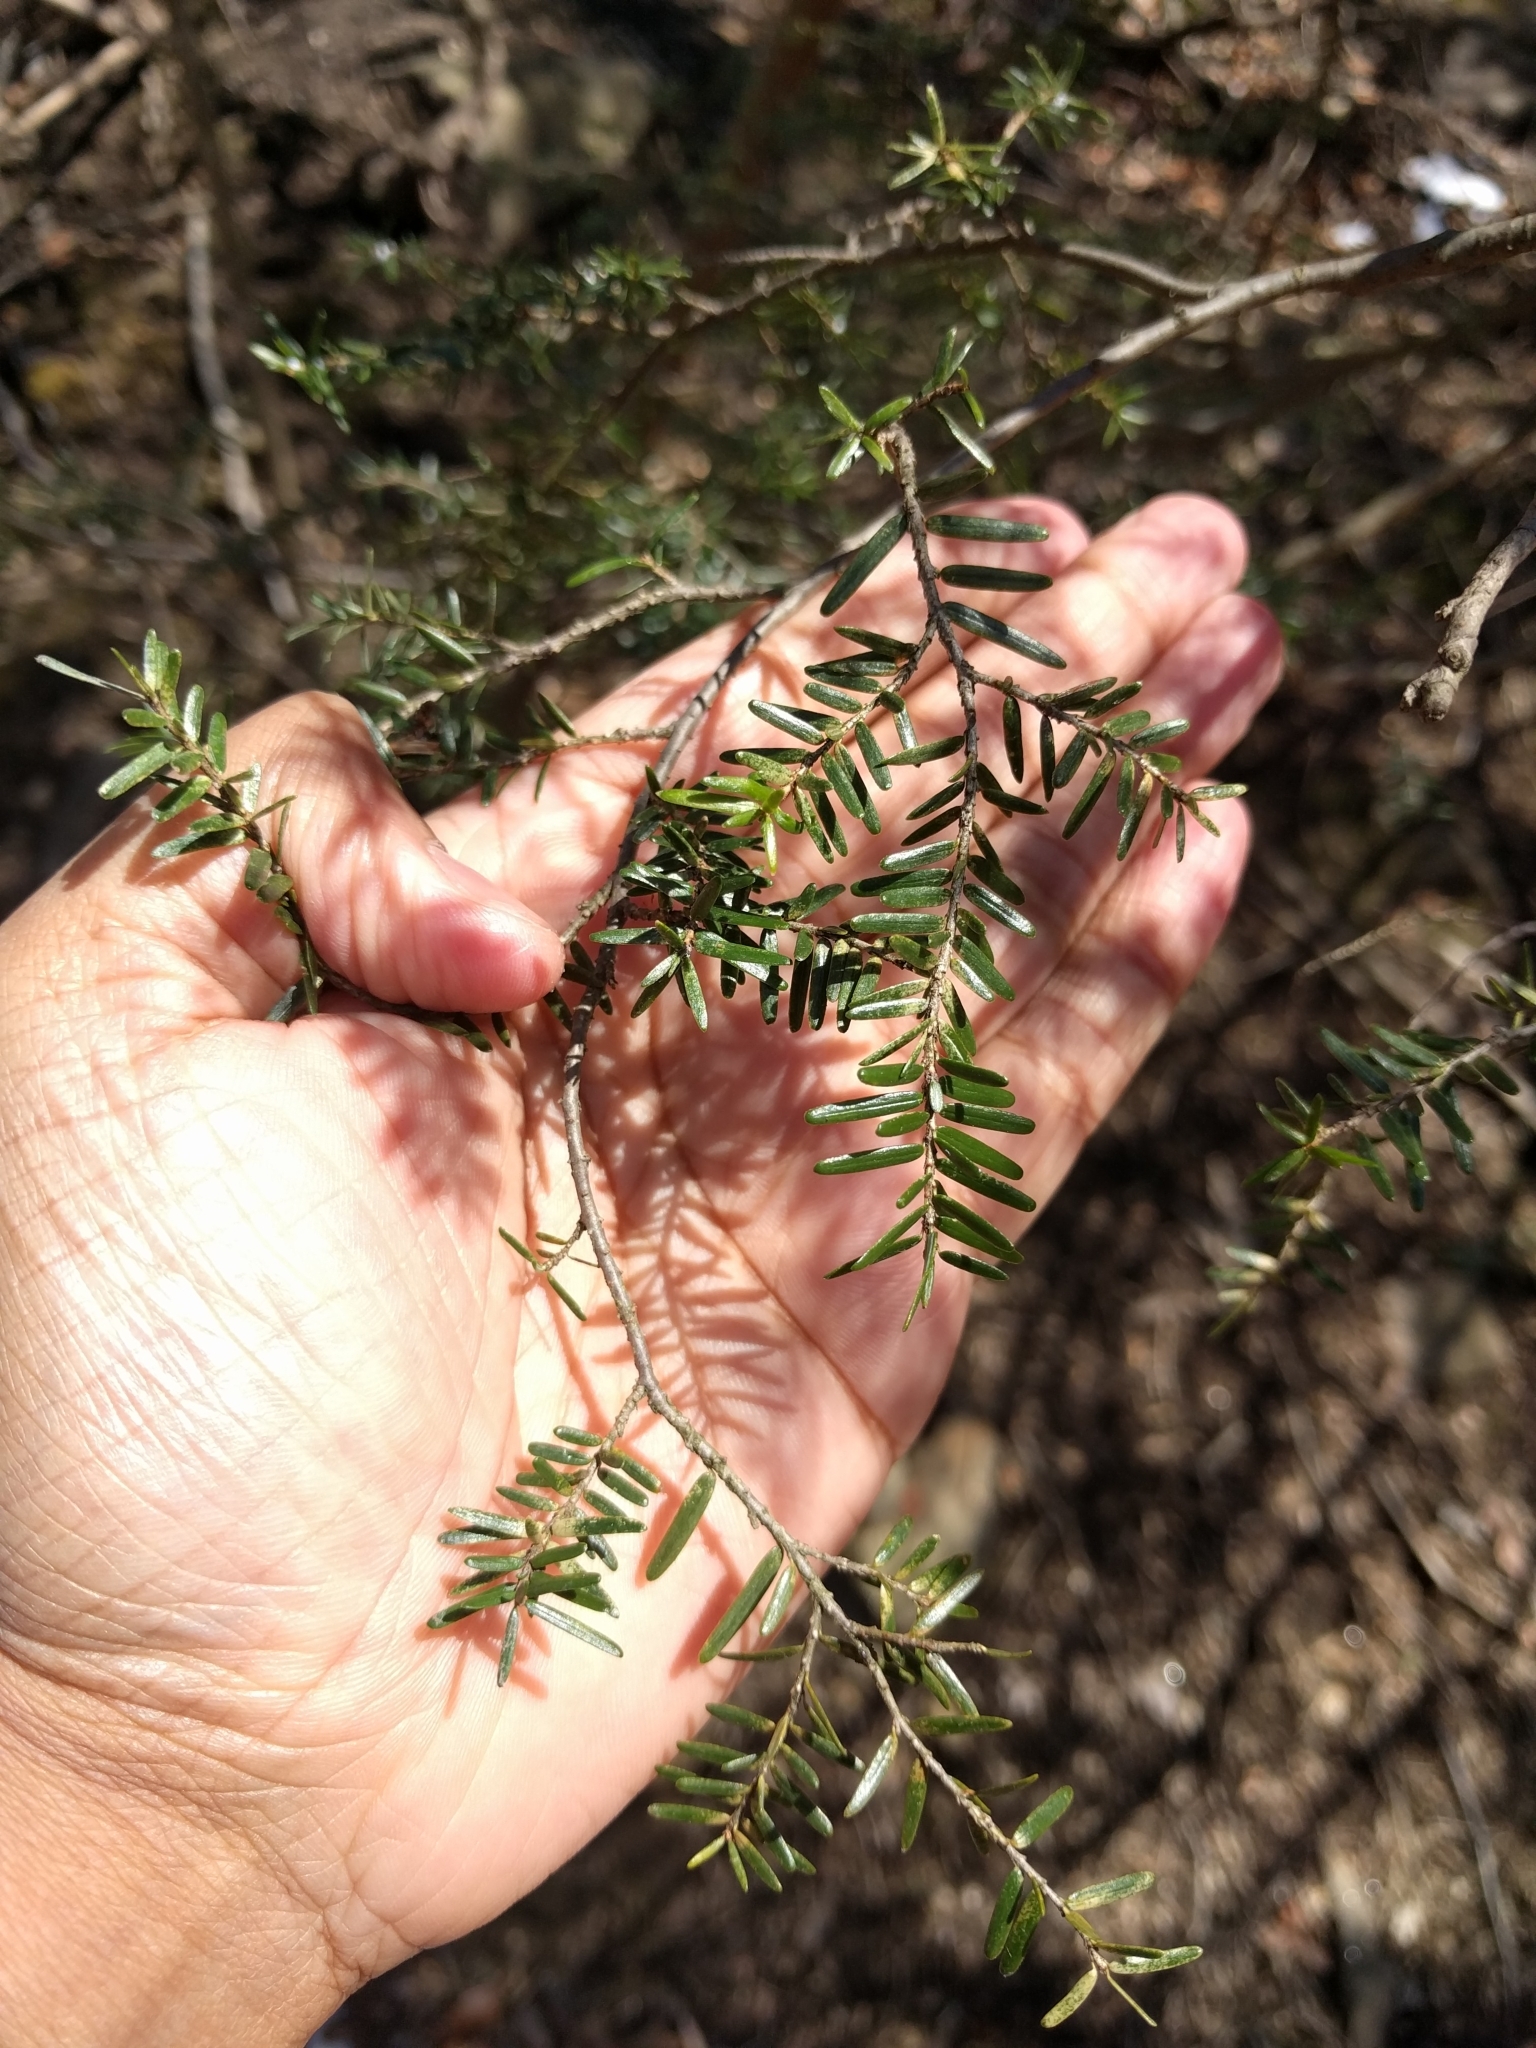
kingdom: Plantae
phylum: Tracheophyta
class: Pinopsida
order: Pinales
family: Pinaceae
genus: Tsuga
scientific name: Tsuga canadensis
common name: Eastern hemlock
